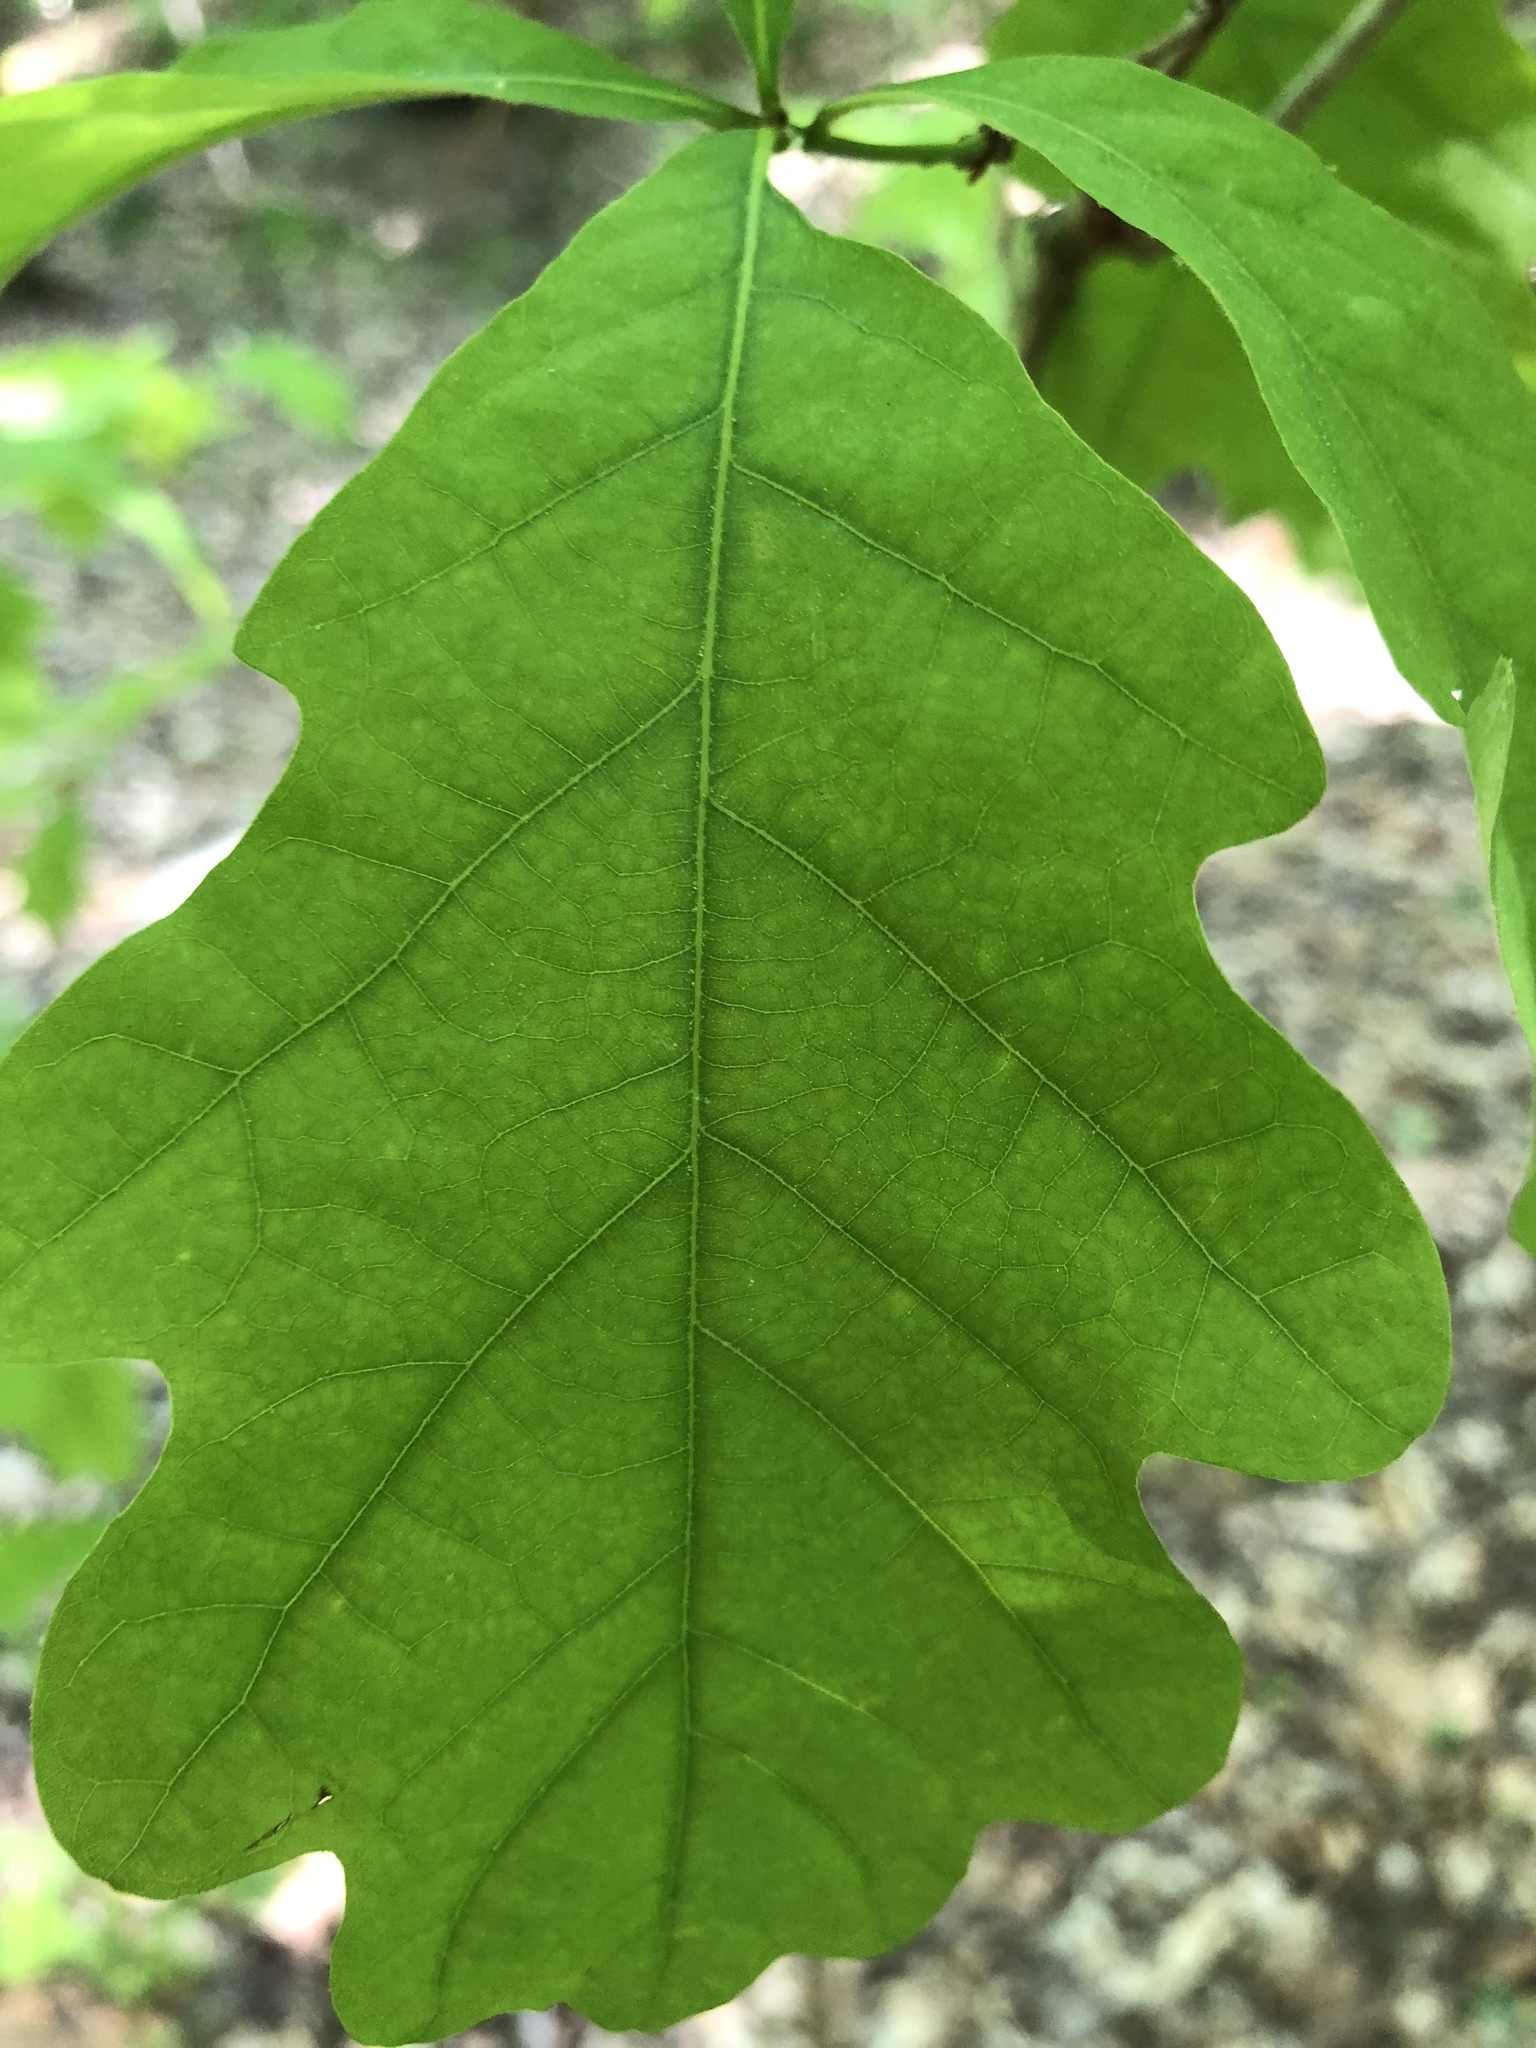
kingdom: Plantae
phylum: Tracheophyta
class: Magnoliopsida
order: Fagales
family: Fagaceae
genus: Quercus
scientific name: Quercus alba
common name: White oak
